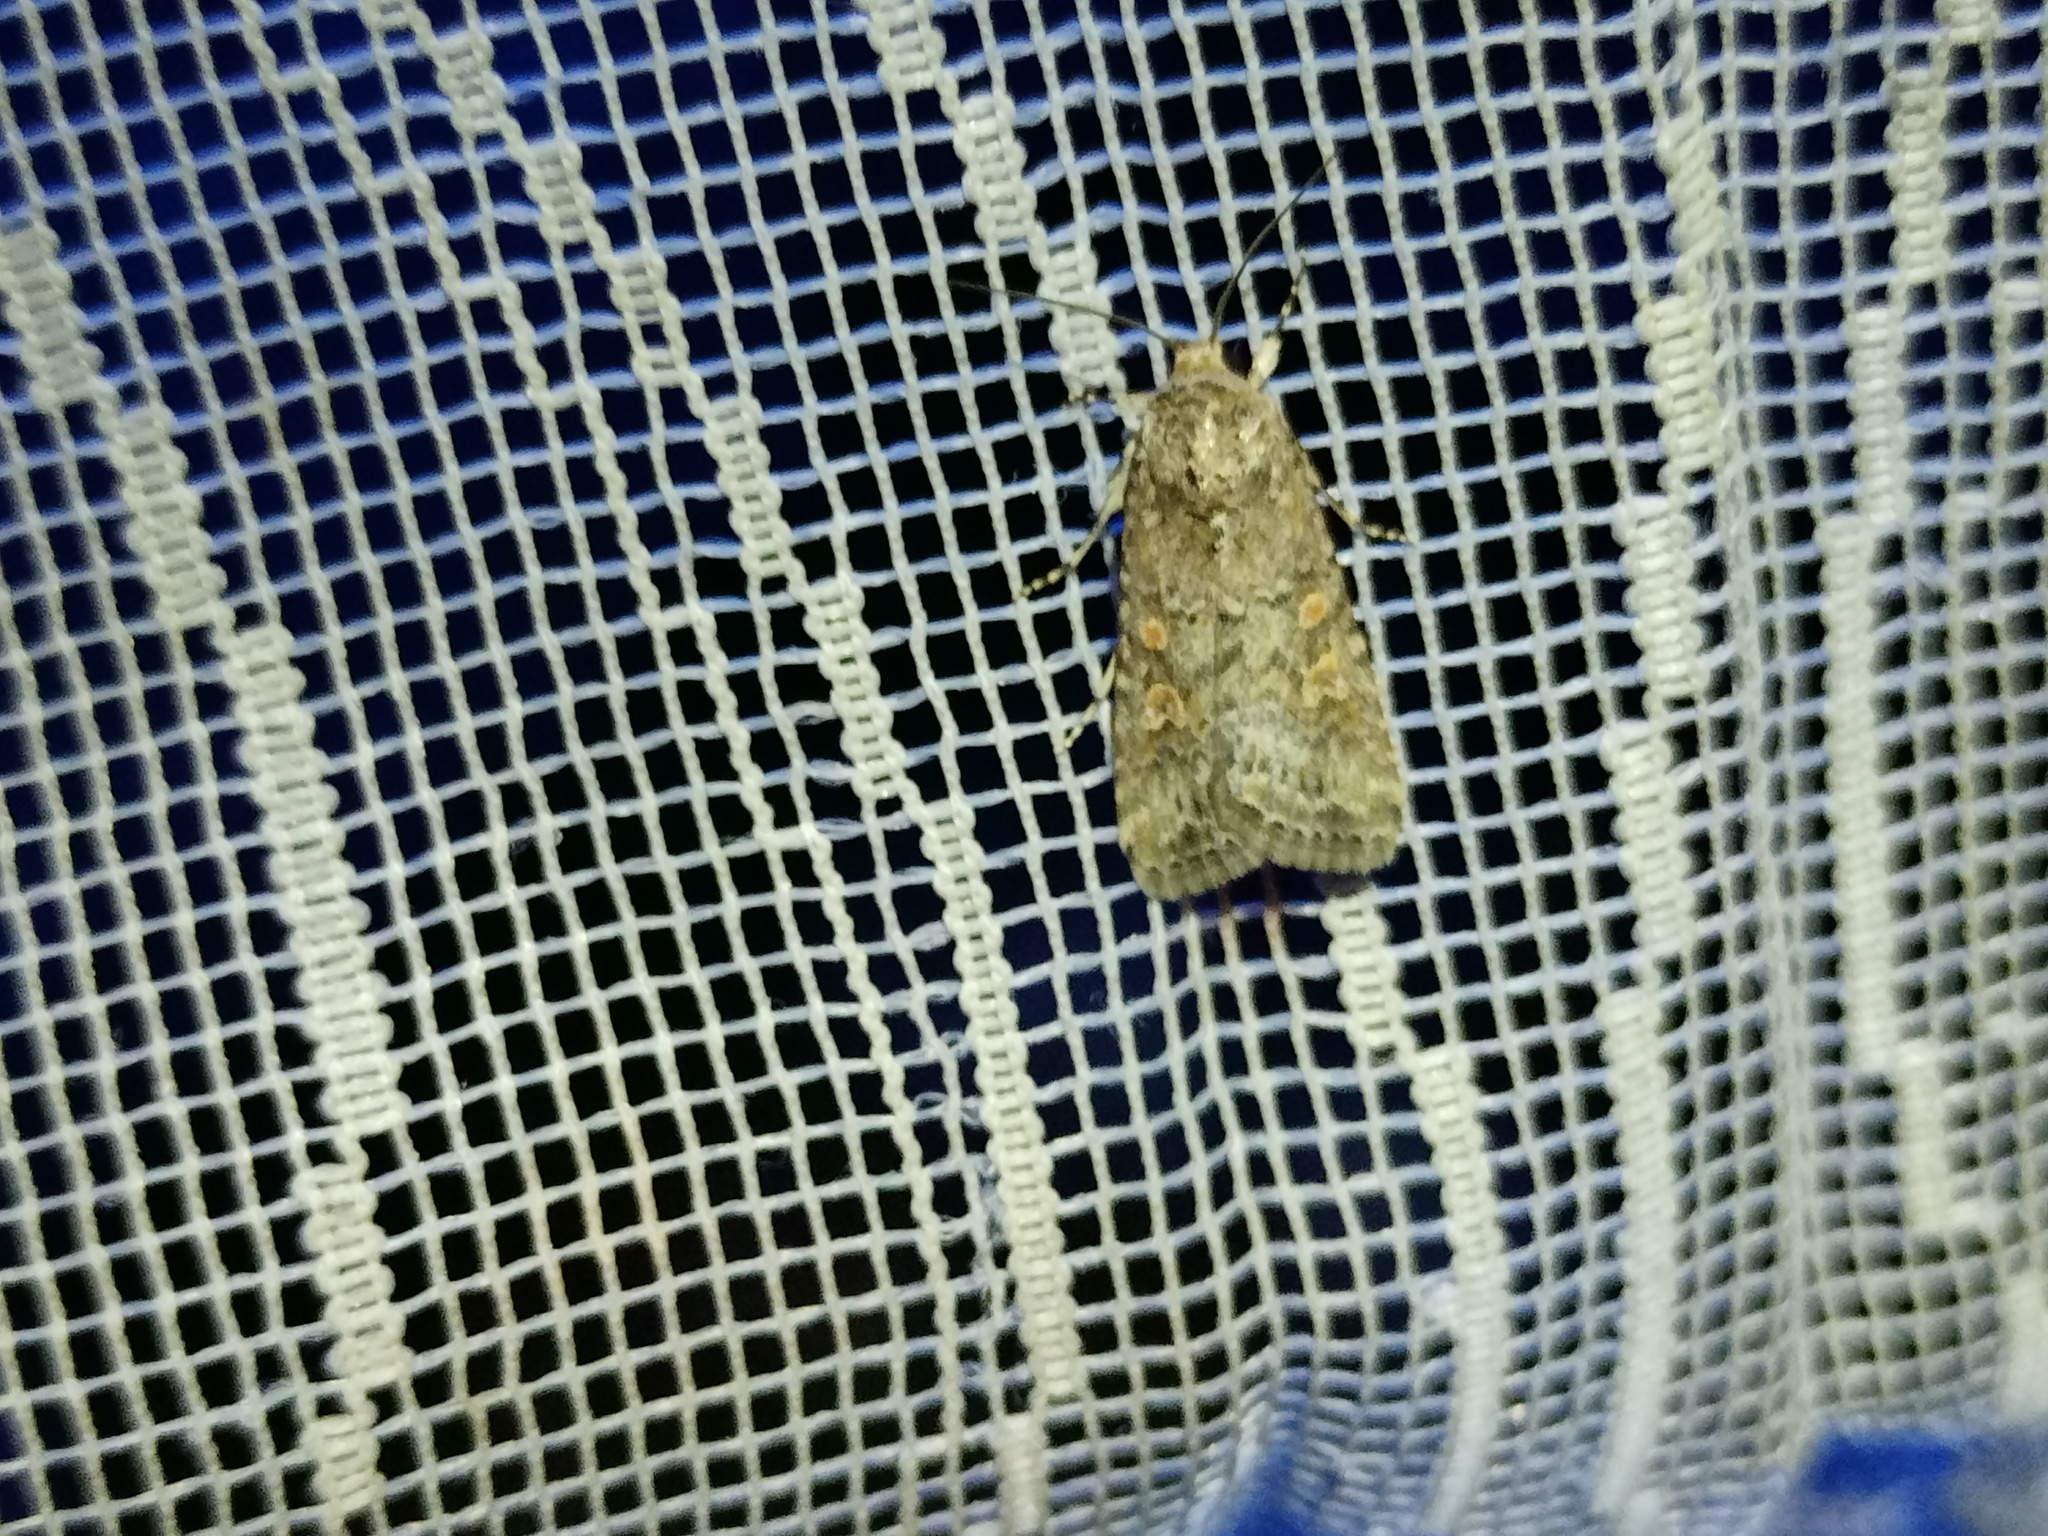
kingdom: Animalia
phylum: Arthropoda
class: Insecta
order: Lepidoptera
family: Noctuidae
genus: Spodoptera
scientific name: Spodoptera exigua
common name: Beet armyworm
